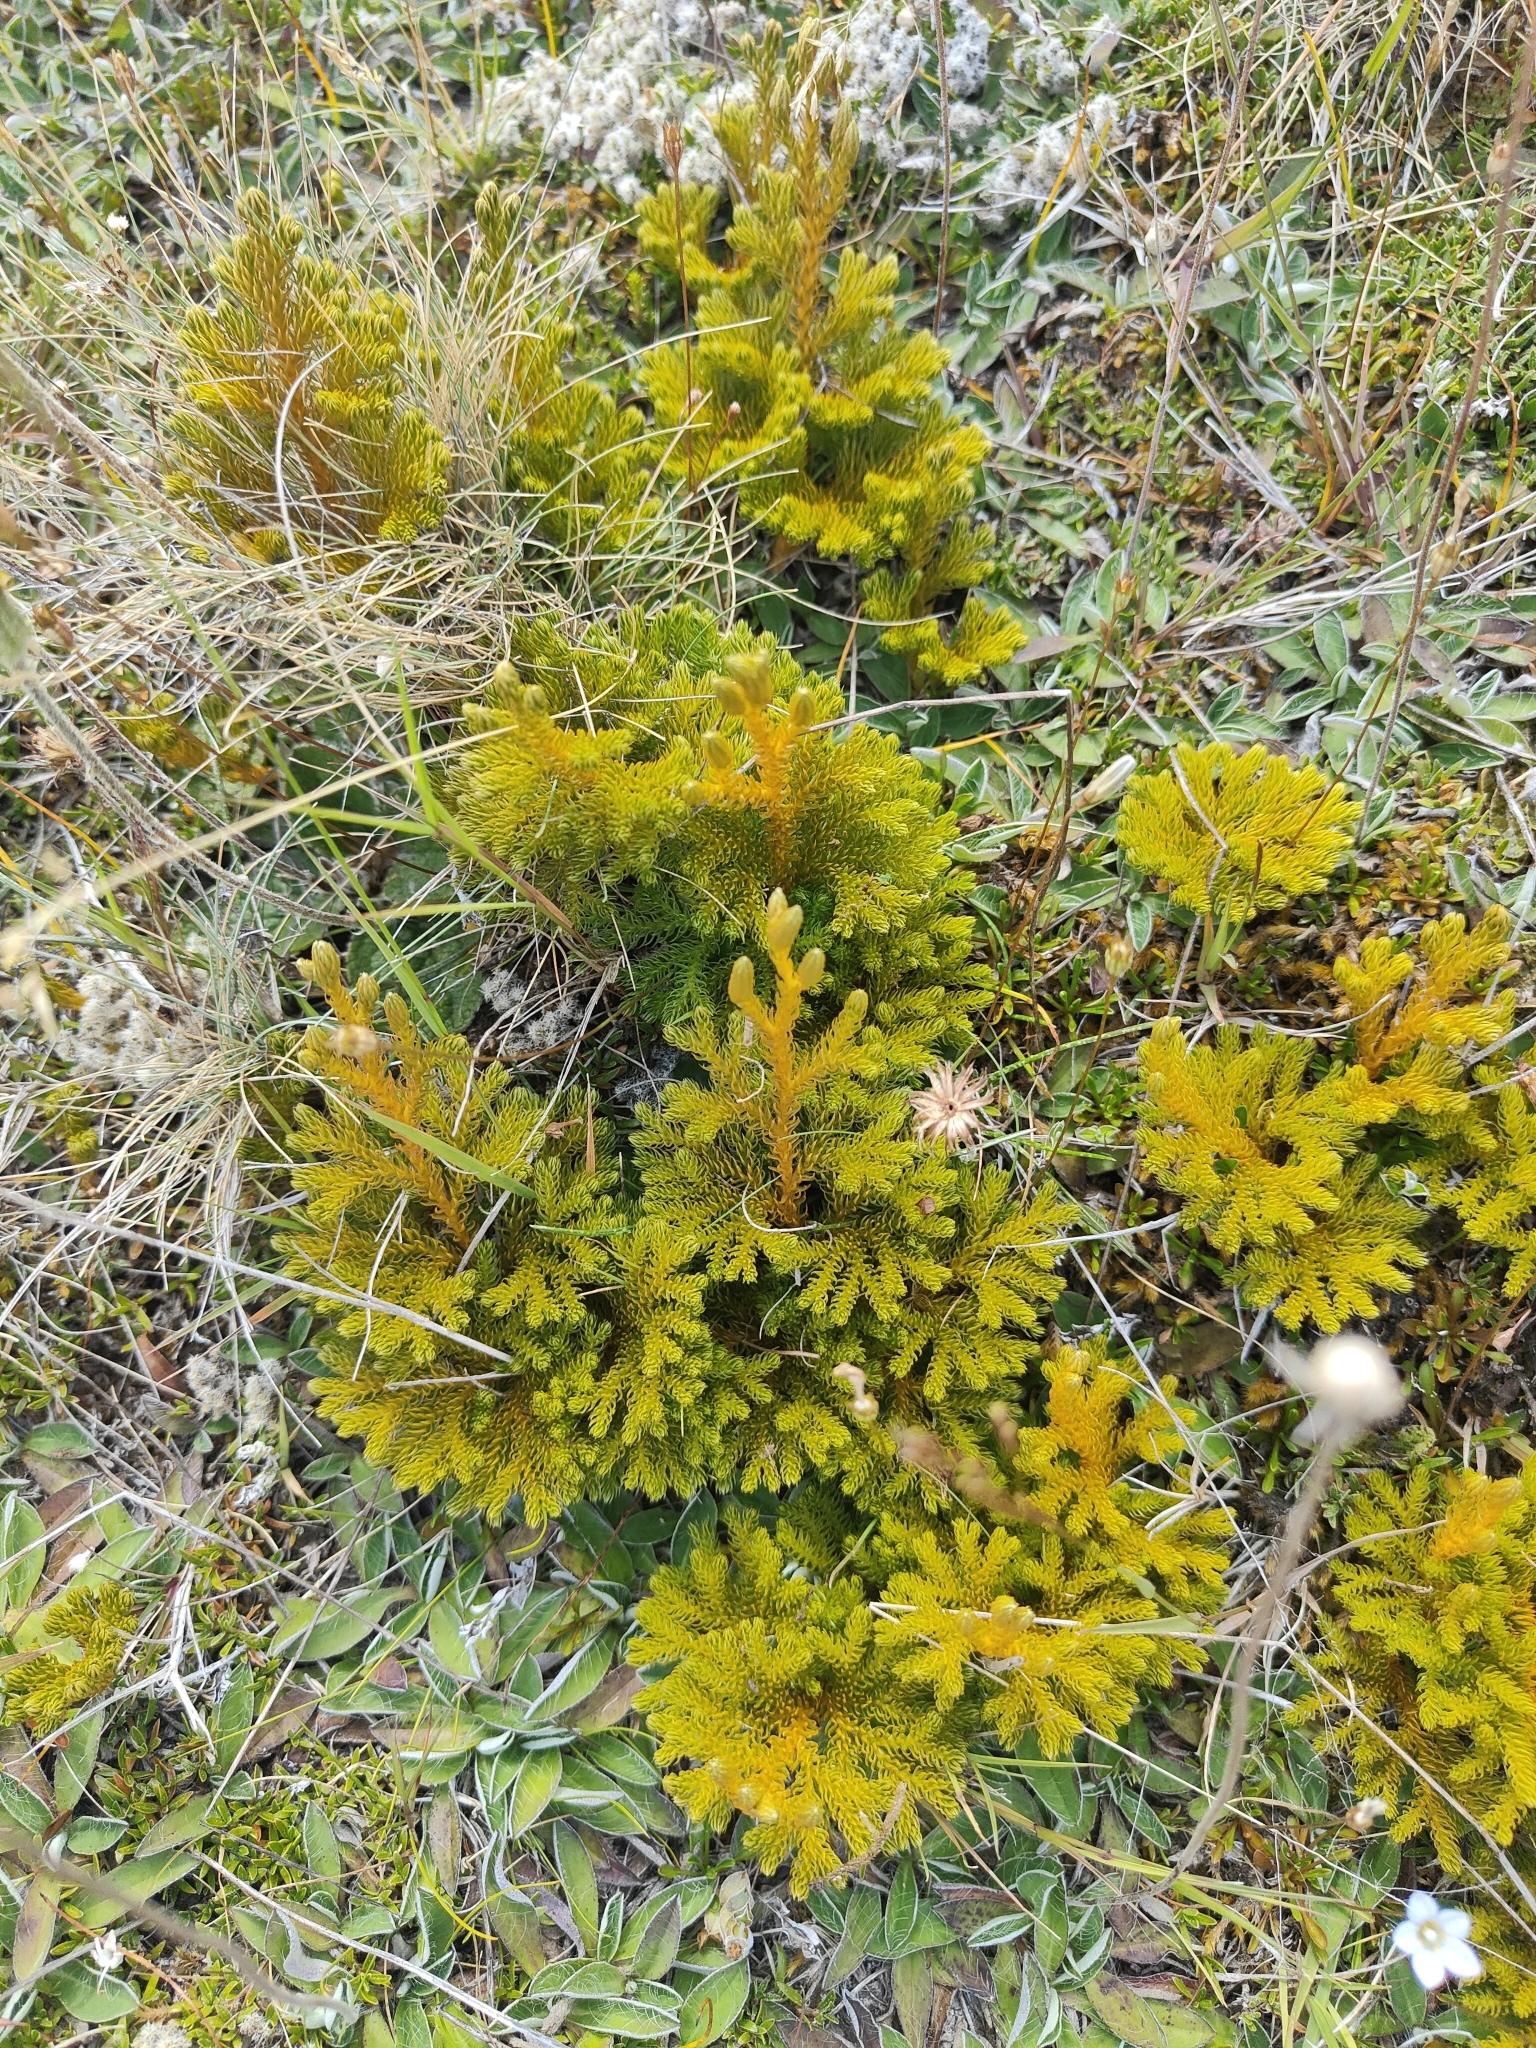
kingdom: Plantae
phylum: Tracheophyta
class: Lycopodiopsida
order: Lycopodiales
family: Lycopodiaceae
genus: Austrolycopodium
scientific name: Austrolycopodium fastigiatum
